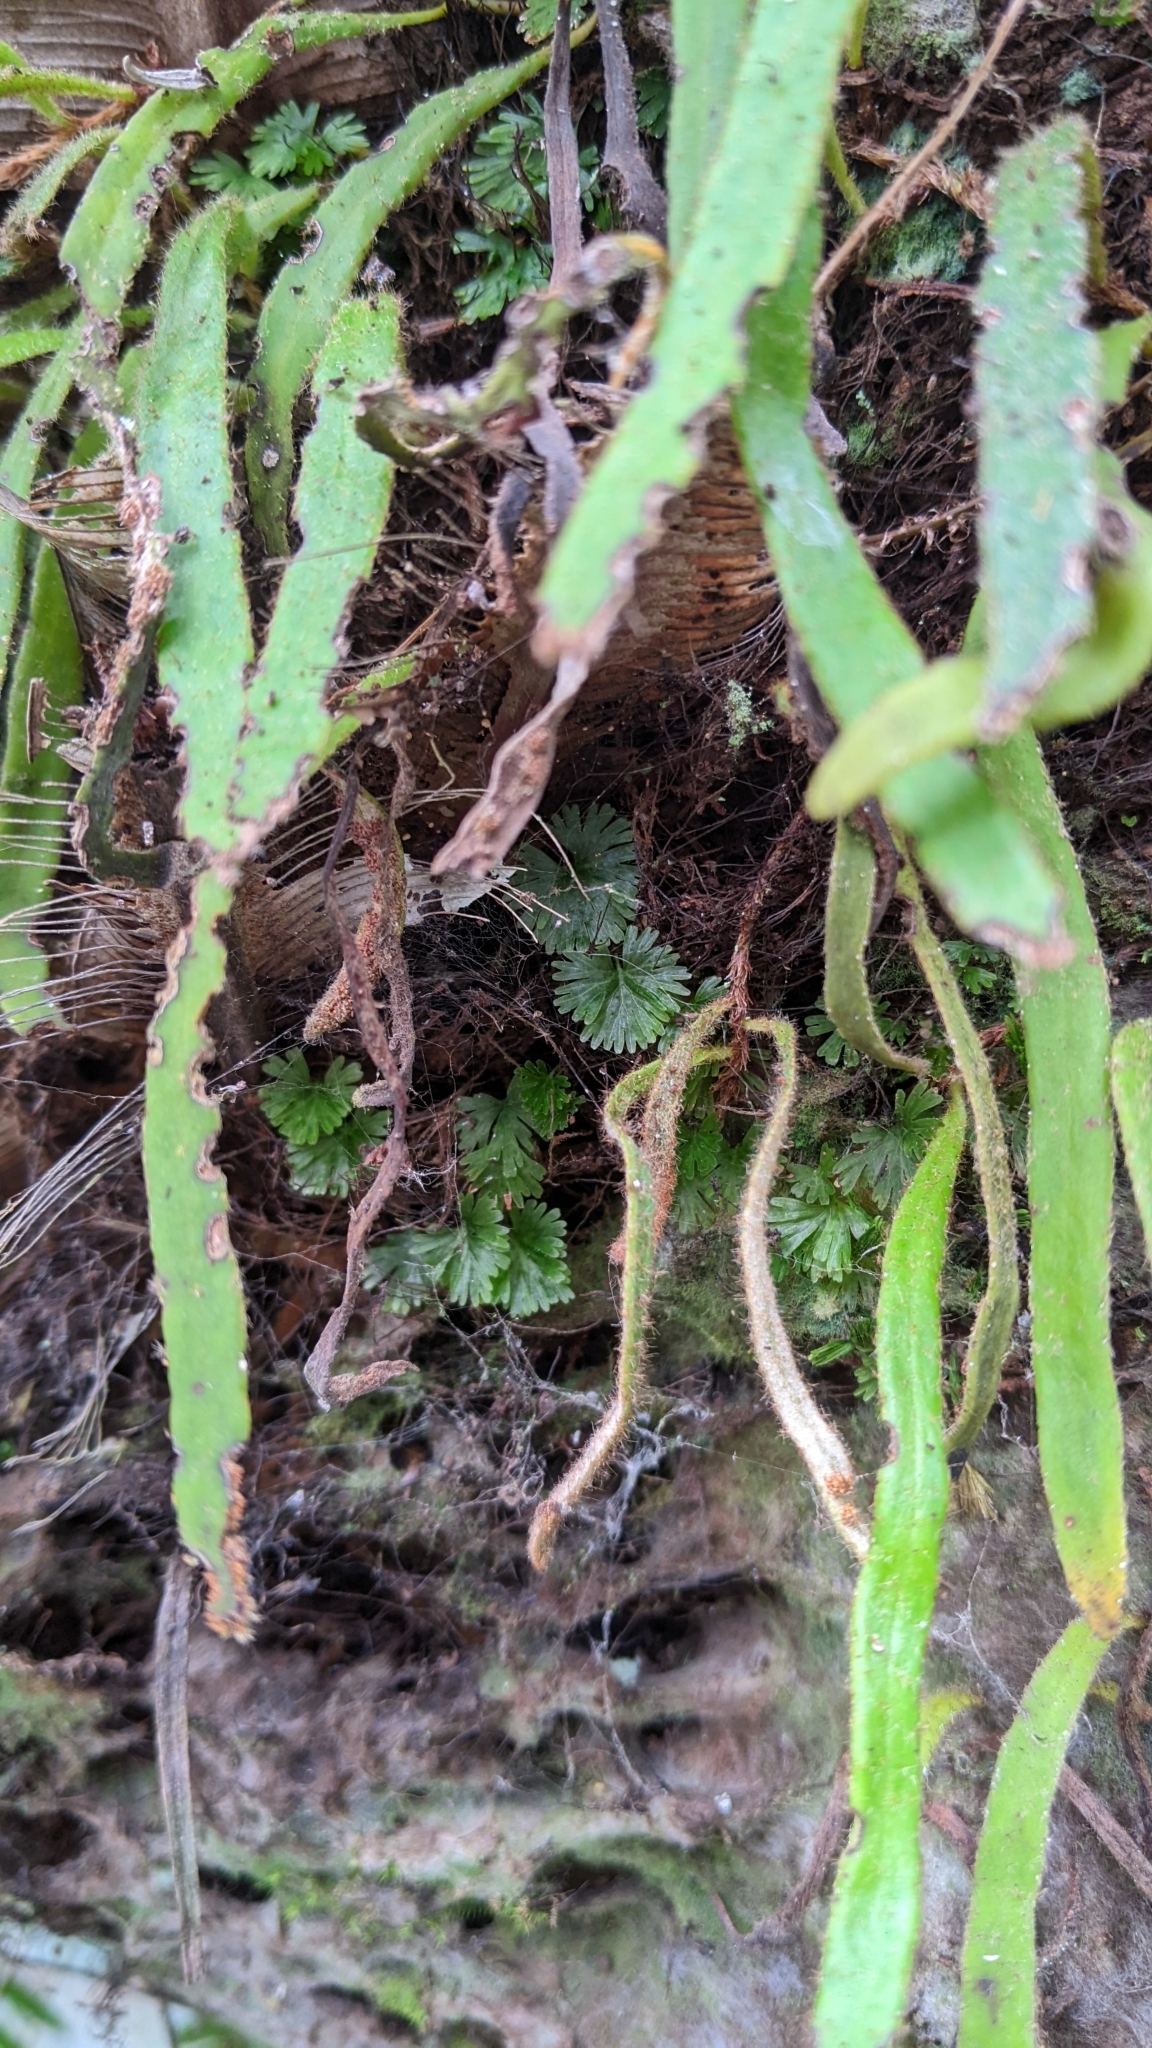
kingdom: Plantae
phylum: Tracheophyta
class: Polypodiopsida
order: Hymenophyllales
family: Hymenophyllaceae
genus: Crepidomanes
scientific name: Crepidomanes parvulum
